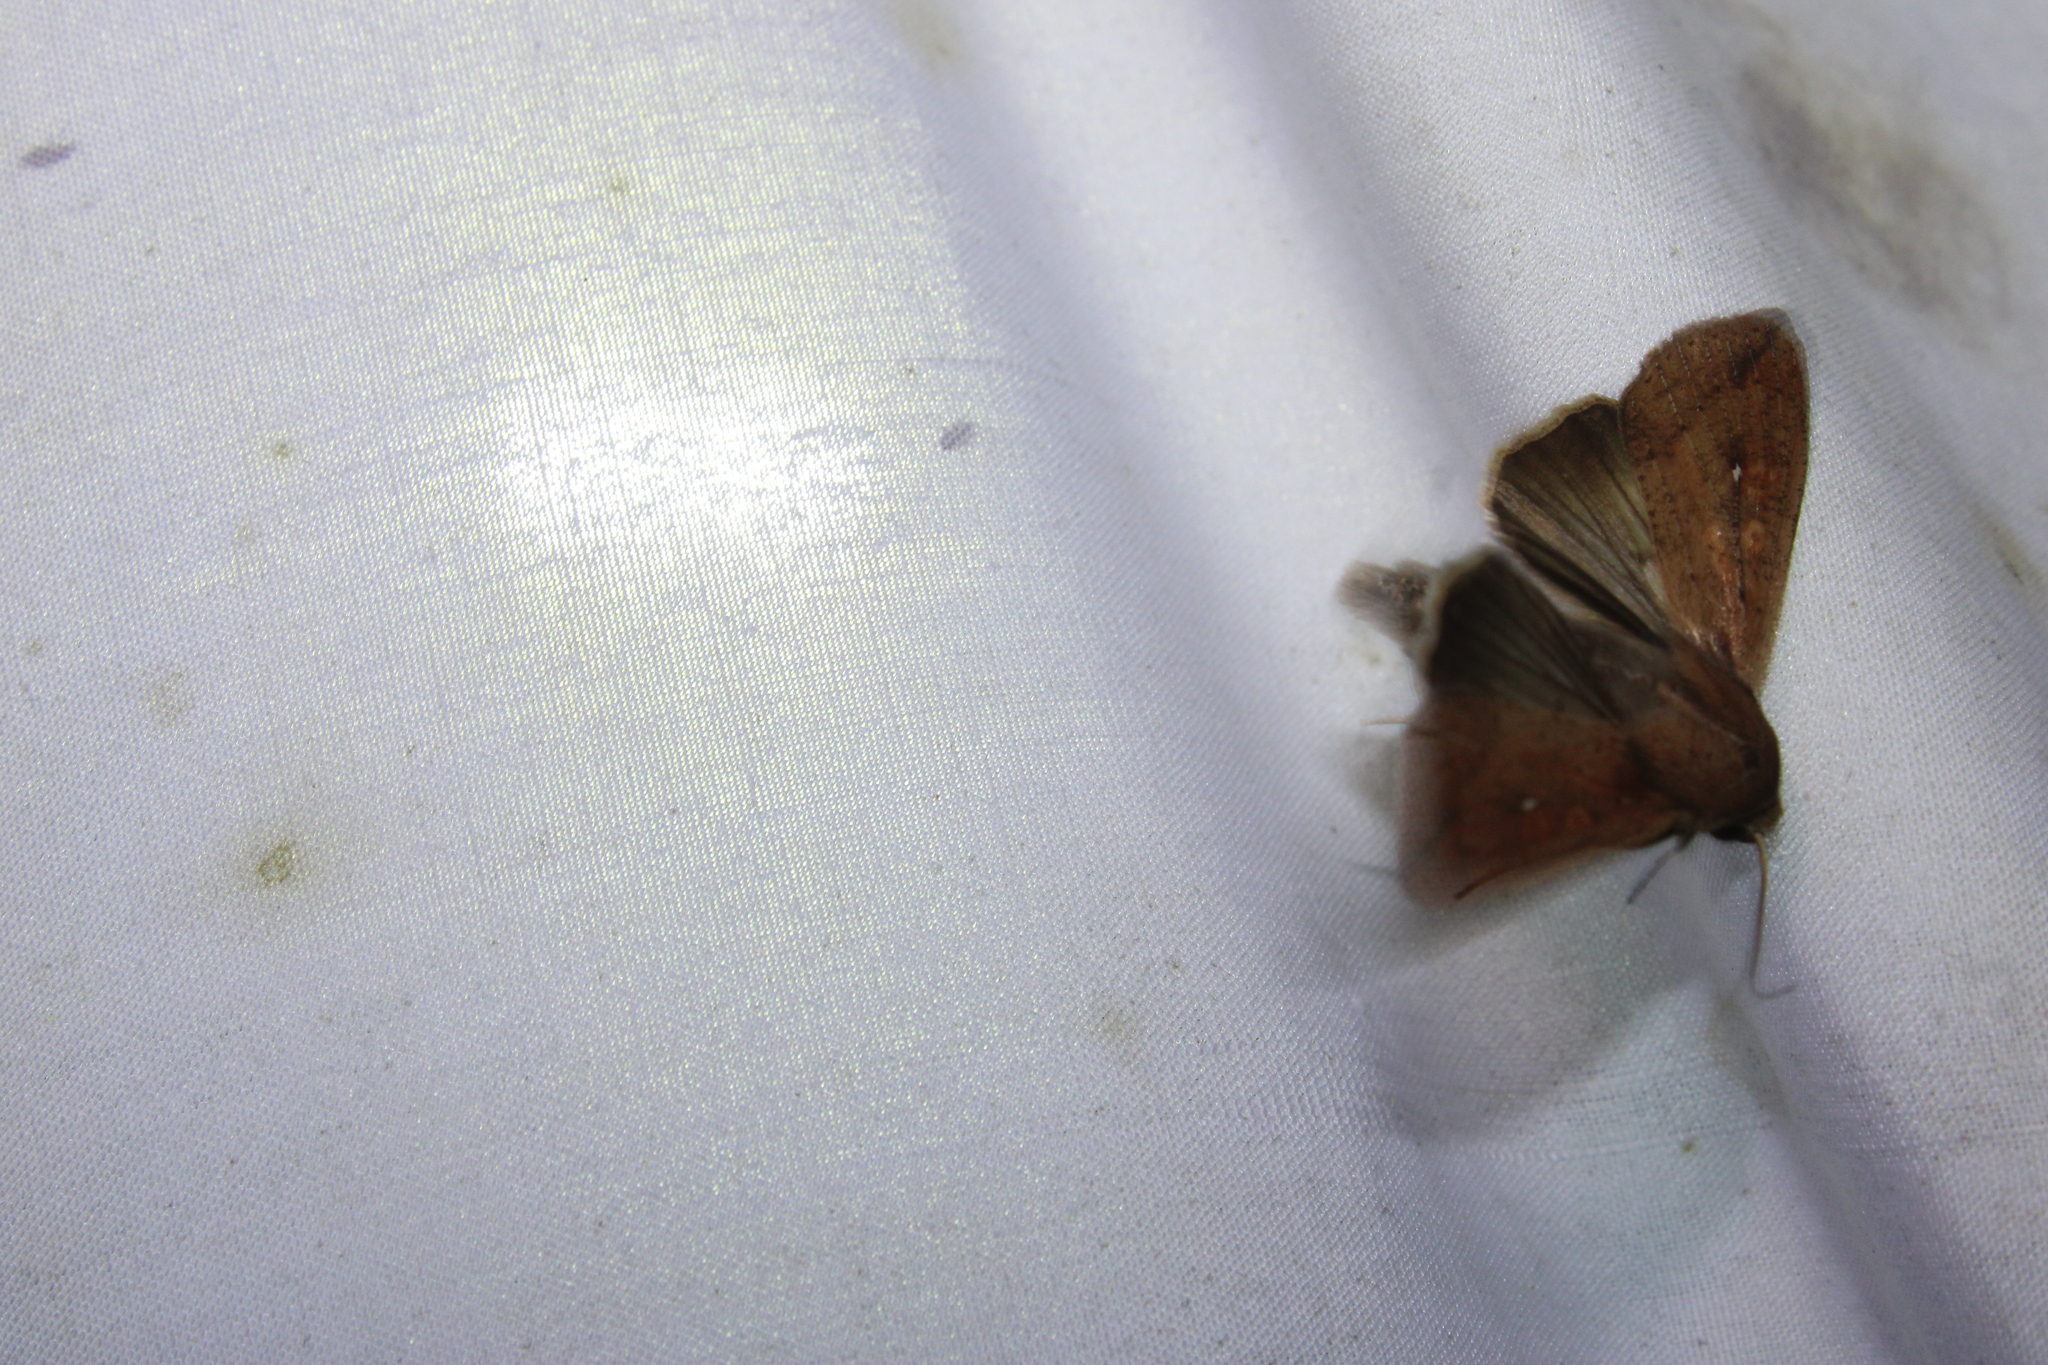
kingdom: Animalia
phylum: Arthropoda
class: Insecta
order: Lepidoptera
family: Noctuidae
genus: Mythimna
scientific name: Mythimna unipuncta
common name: White-speck
